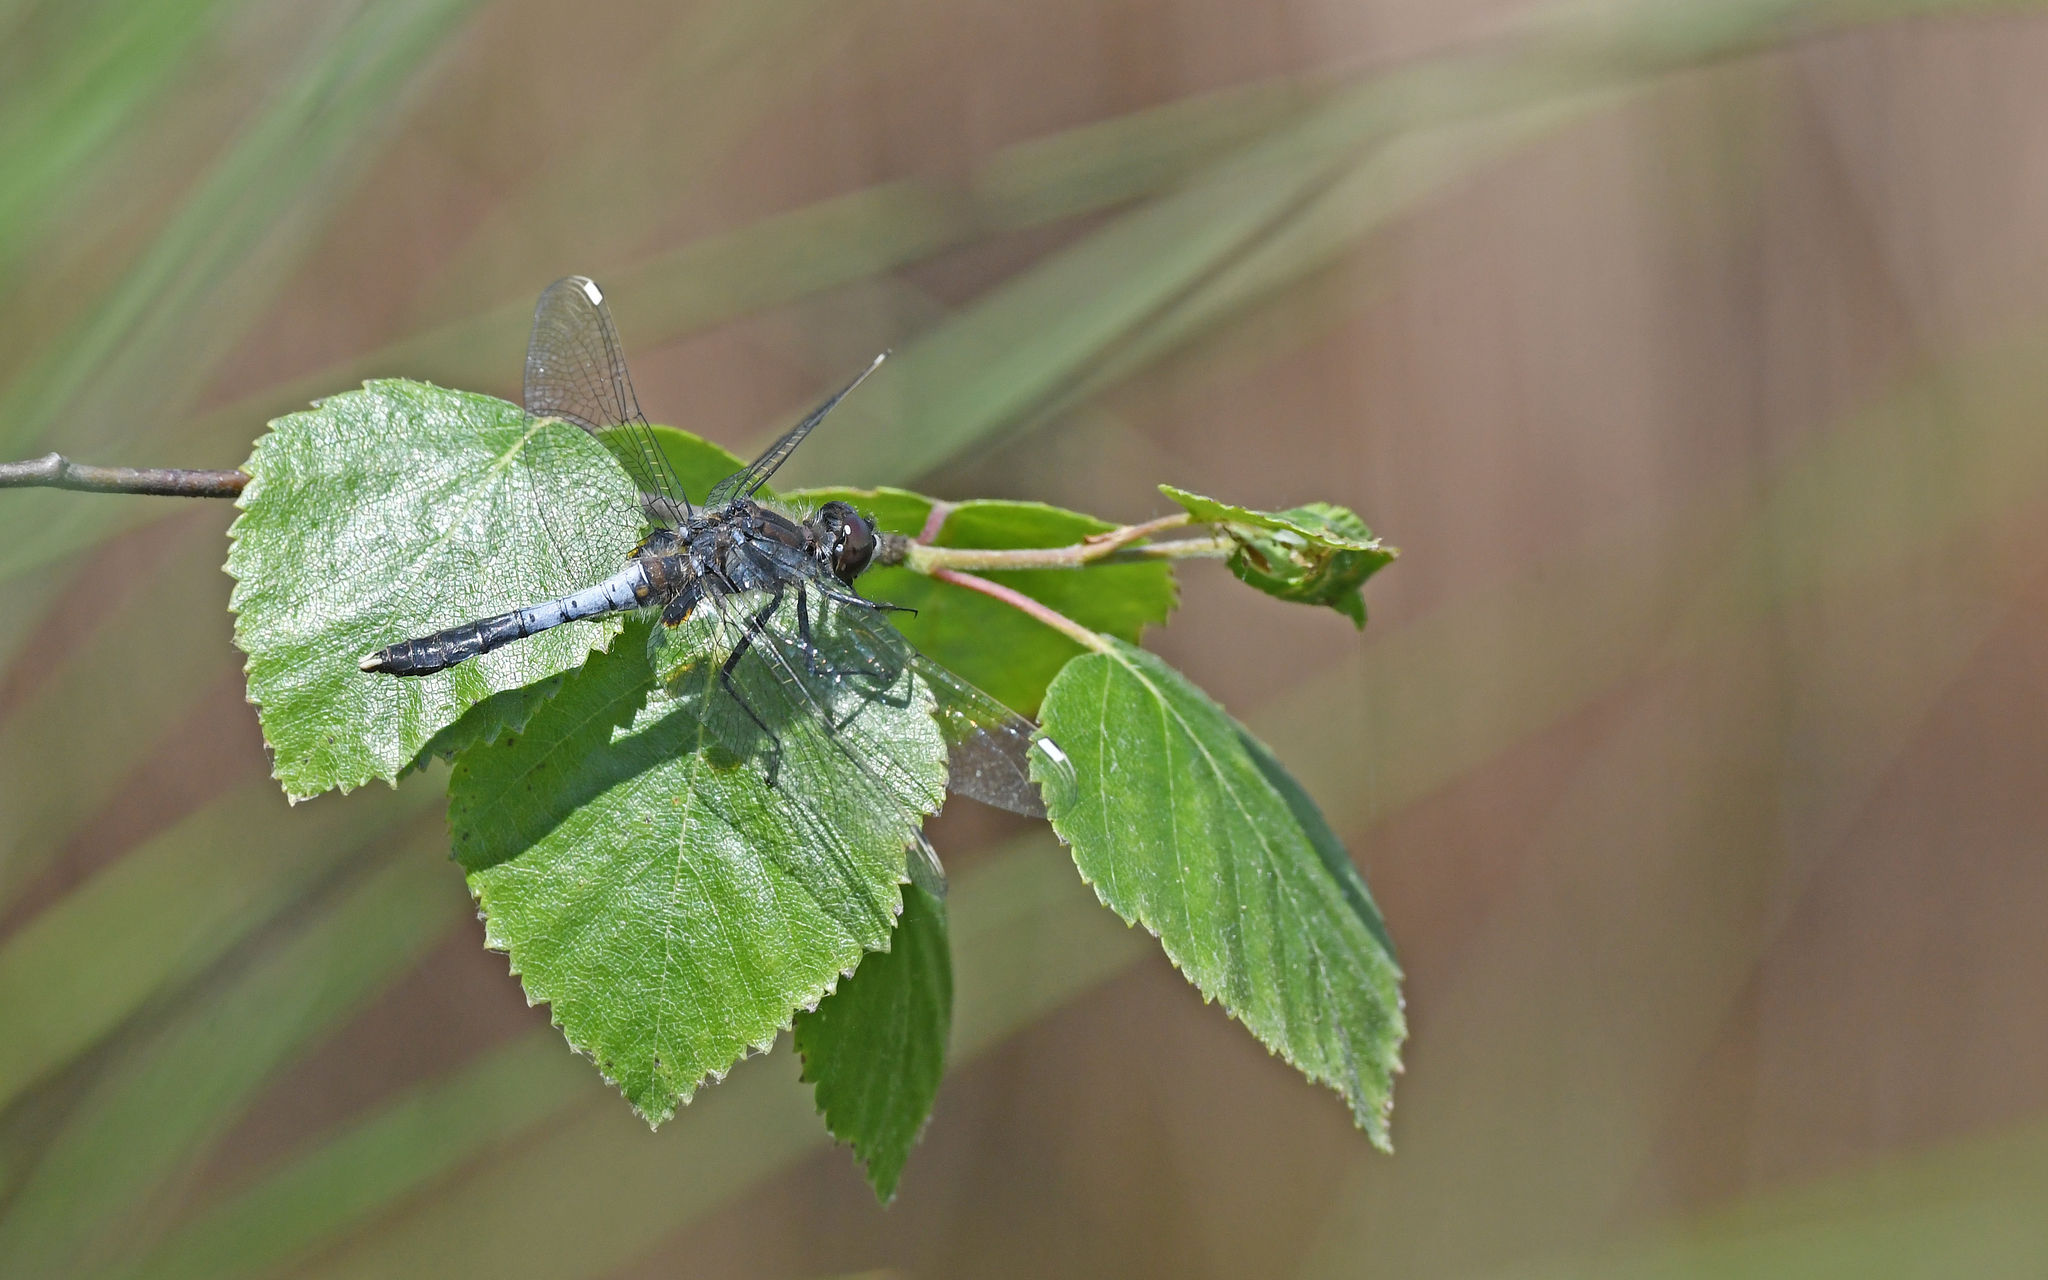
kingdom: Animalia
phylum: Arthropoda
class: Insecta
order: Odonata
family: Libellulidae
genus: Leucorrhinia
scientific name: Leucorrhinia caudalis
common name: Lilypad whiteface
